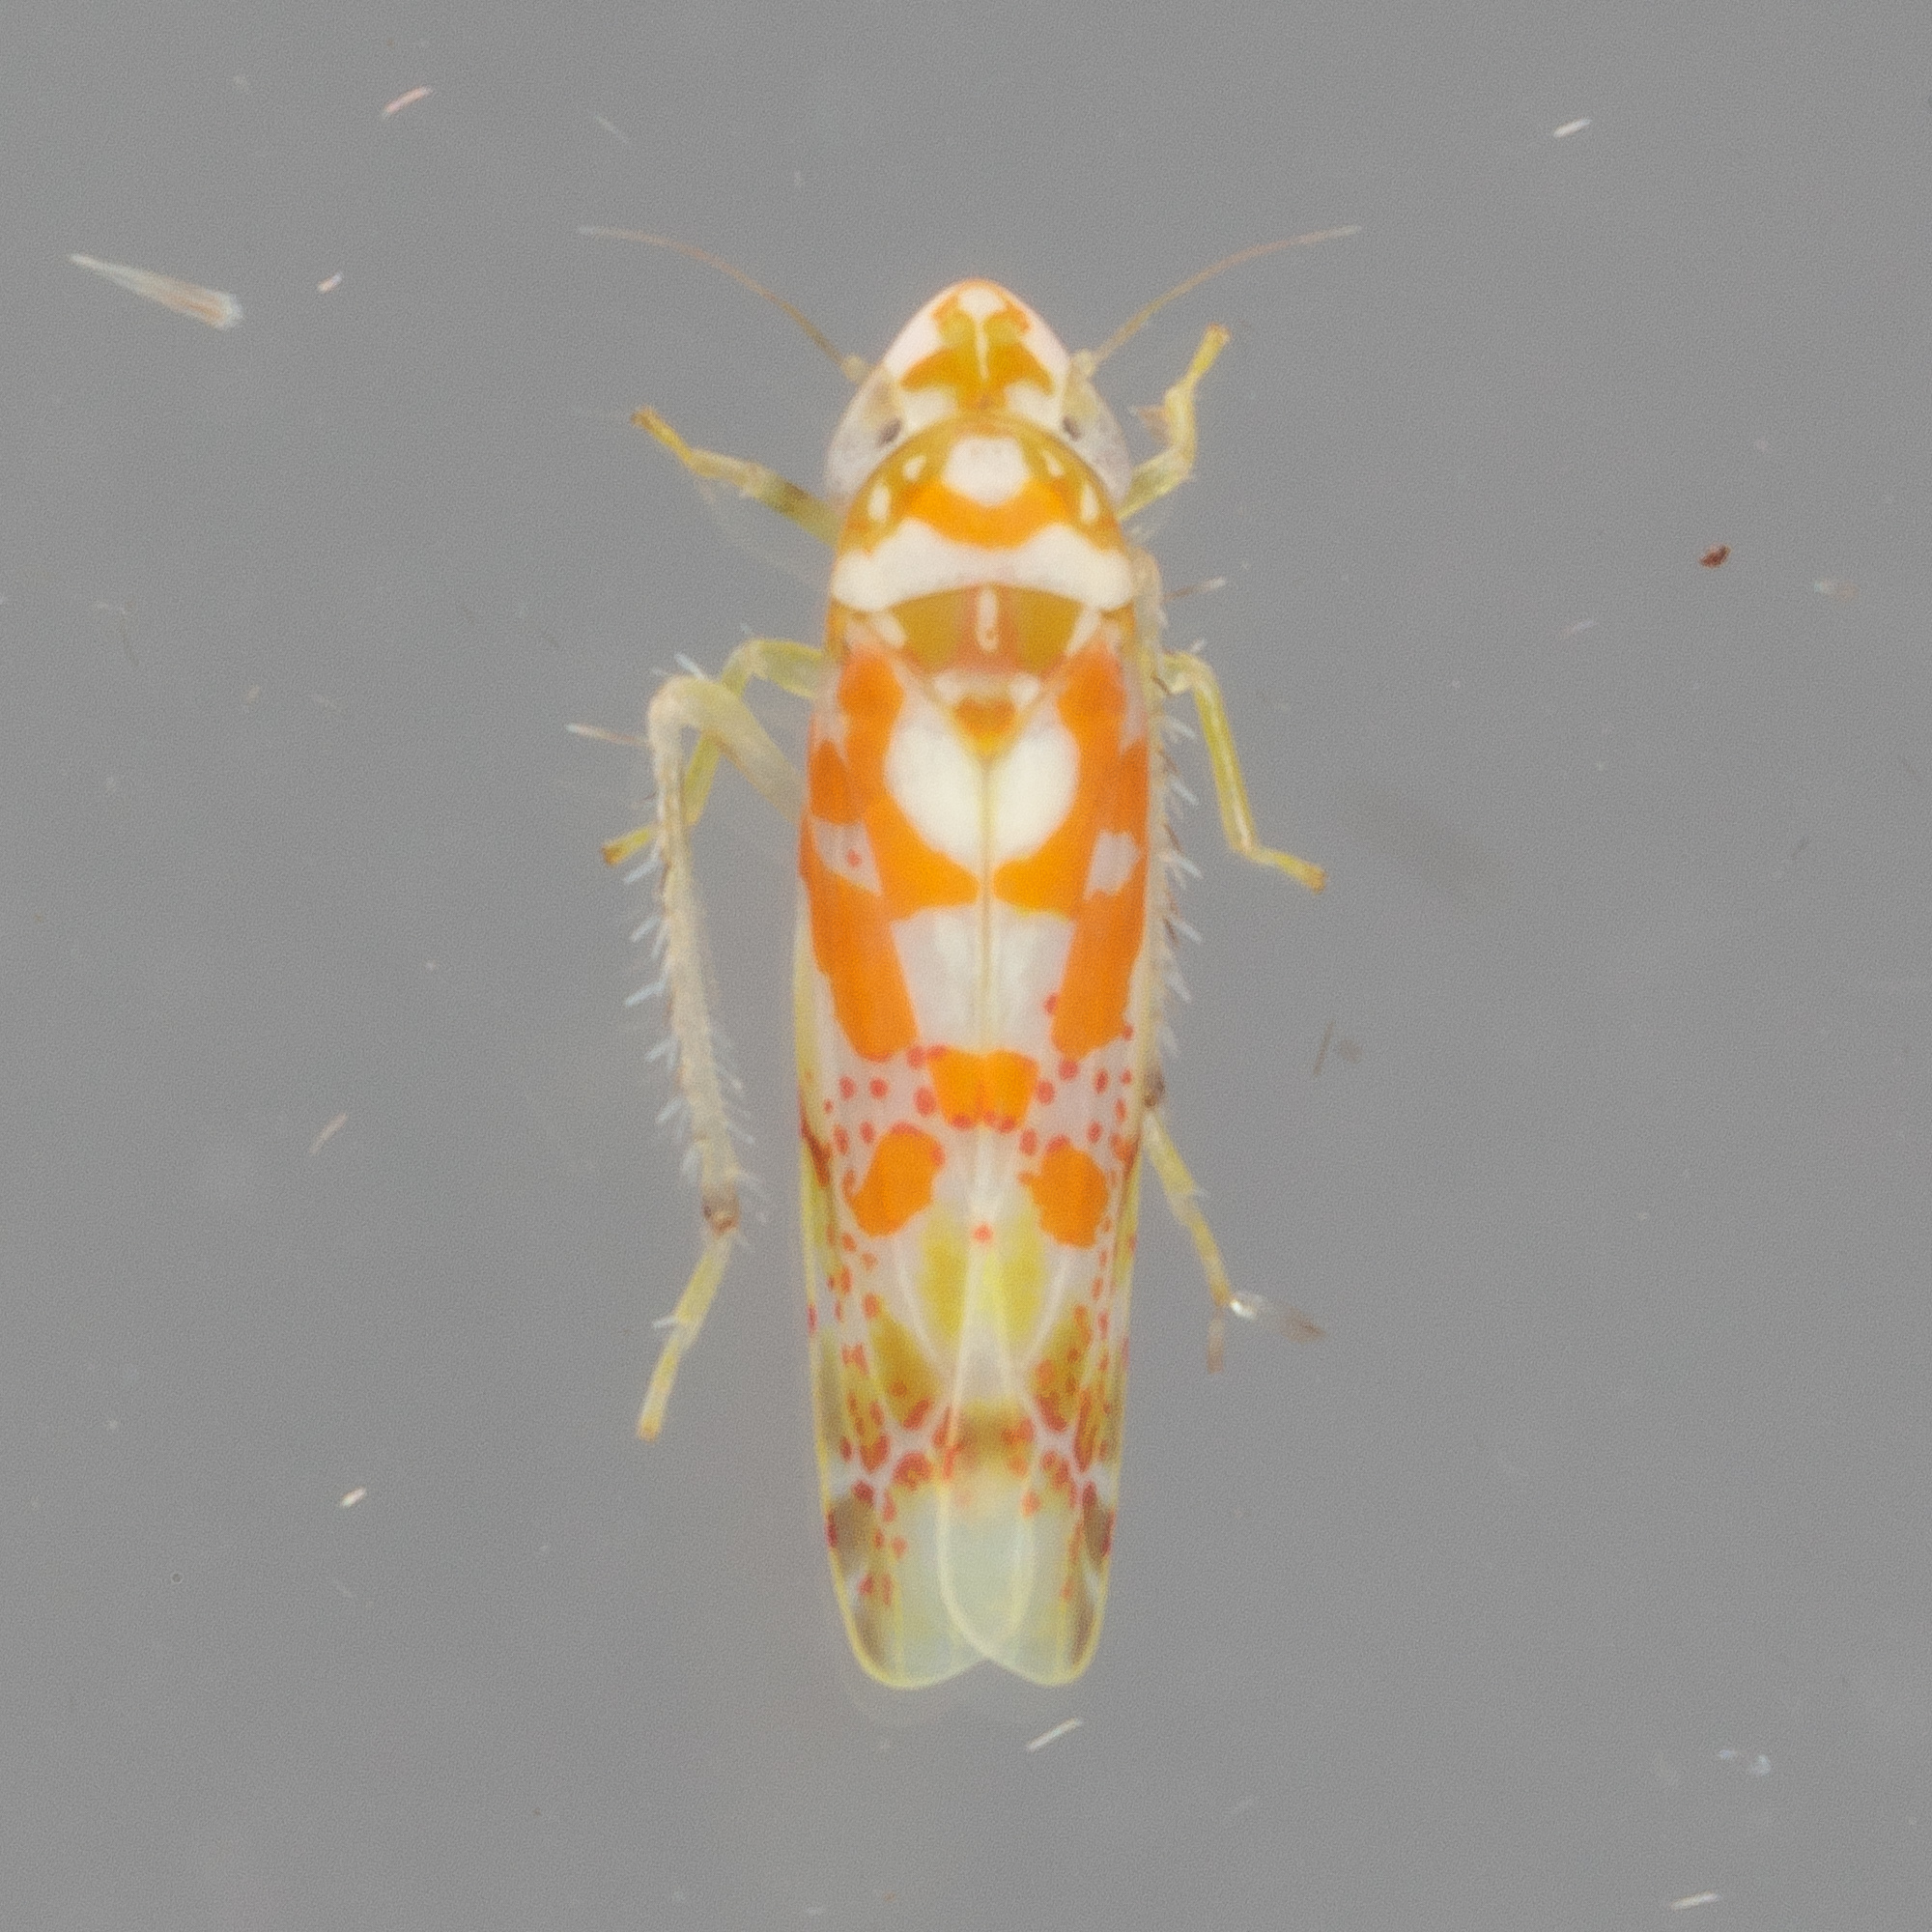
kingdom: Animalia
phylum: Arthropoda
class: Insecta
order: Hemiptera
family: Cicadellidae
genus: Dikrella
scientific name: Dikrella maculata
